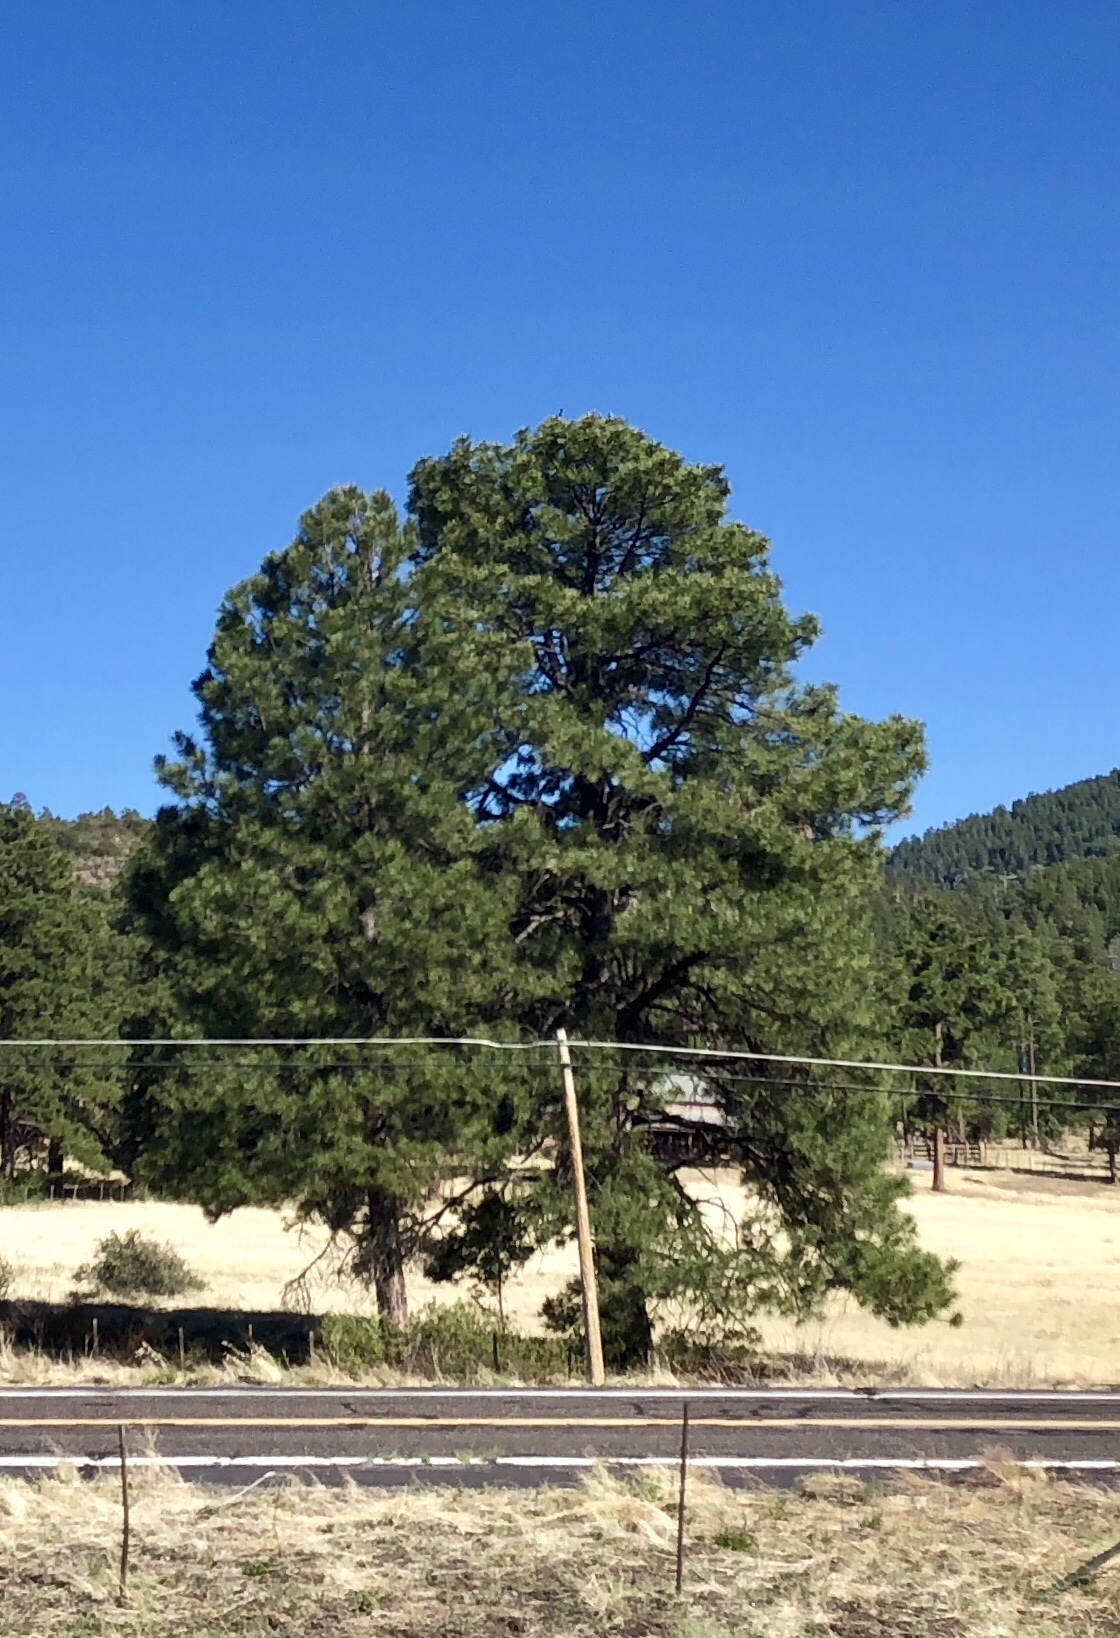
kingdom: Plantae
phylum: Tracheophyta
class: Pinopsida
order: Pinales
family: Pinaceae
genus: Pinus
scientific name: Pinus ponderosa
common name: Western yellow-pine
